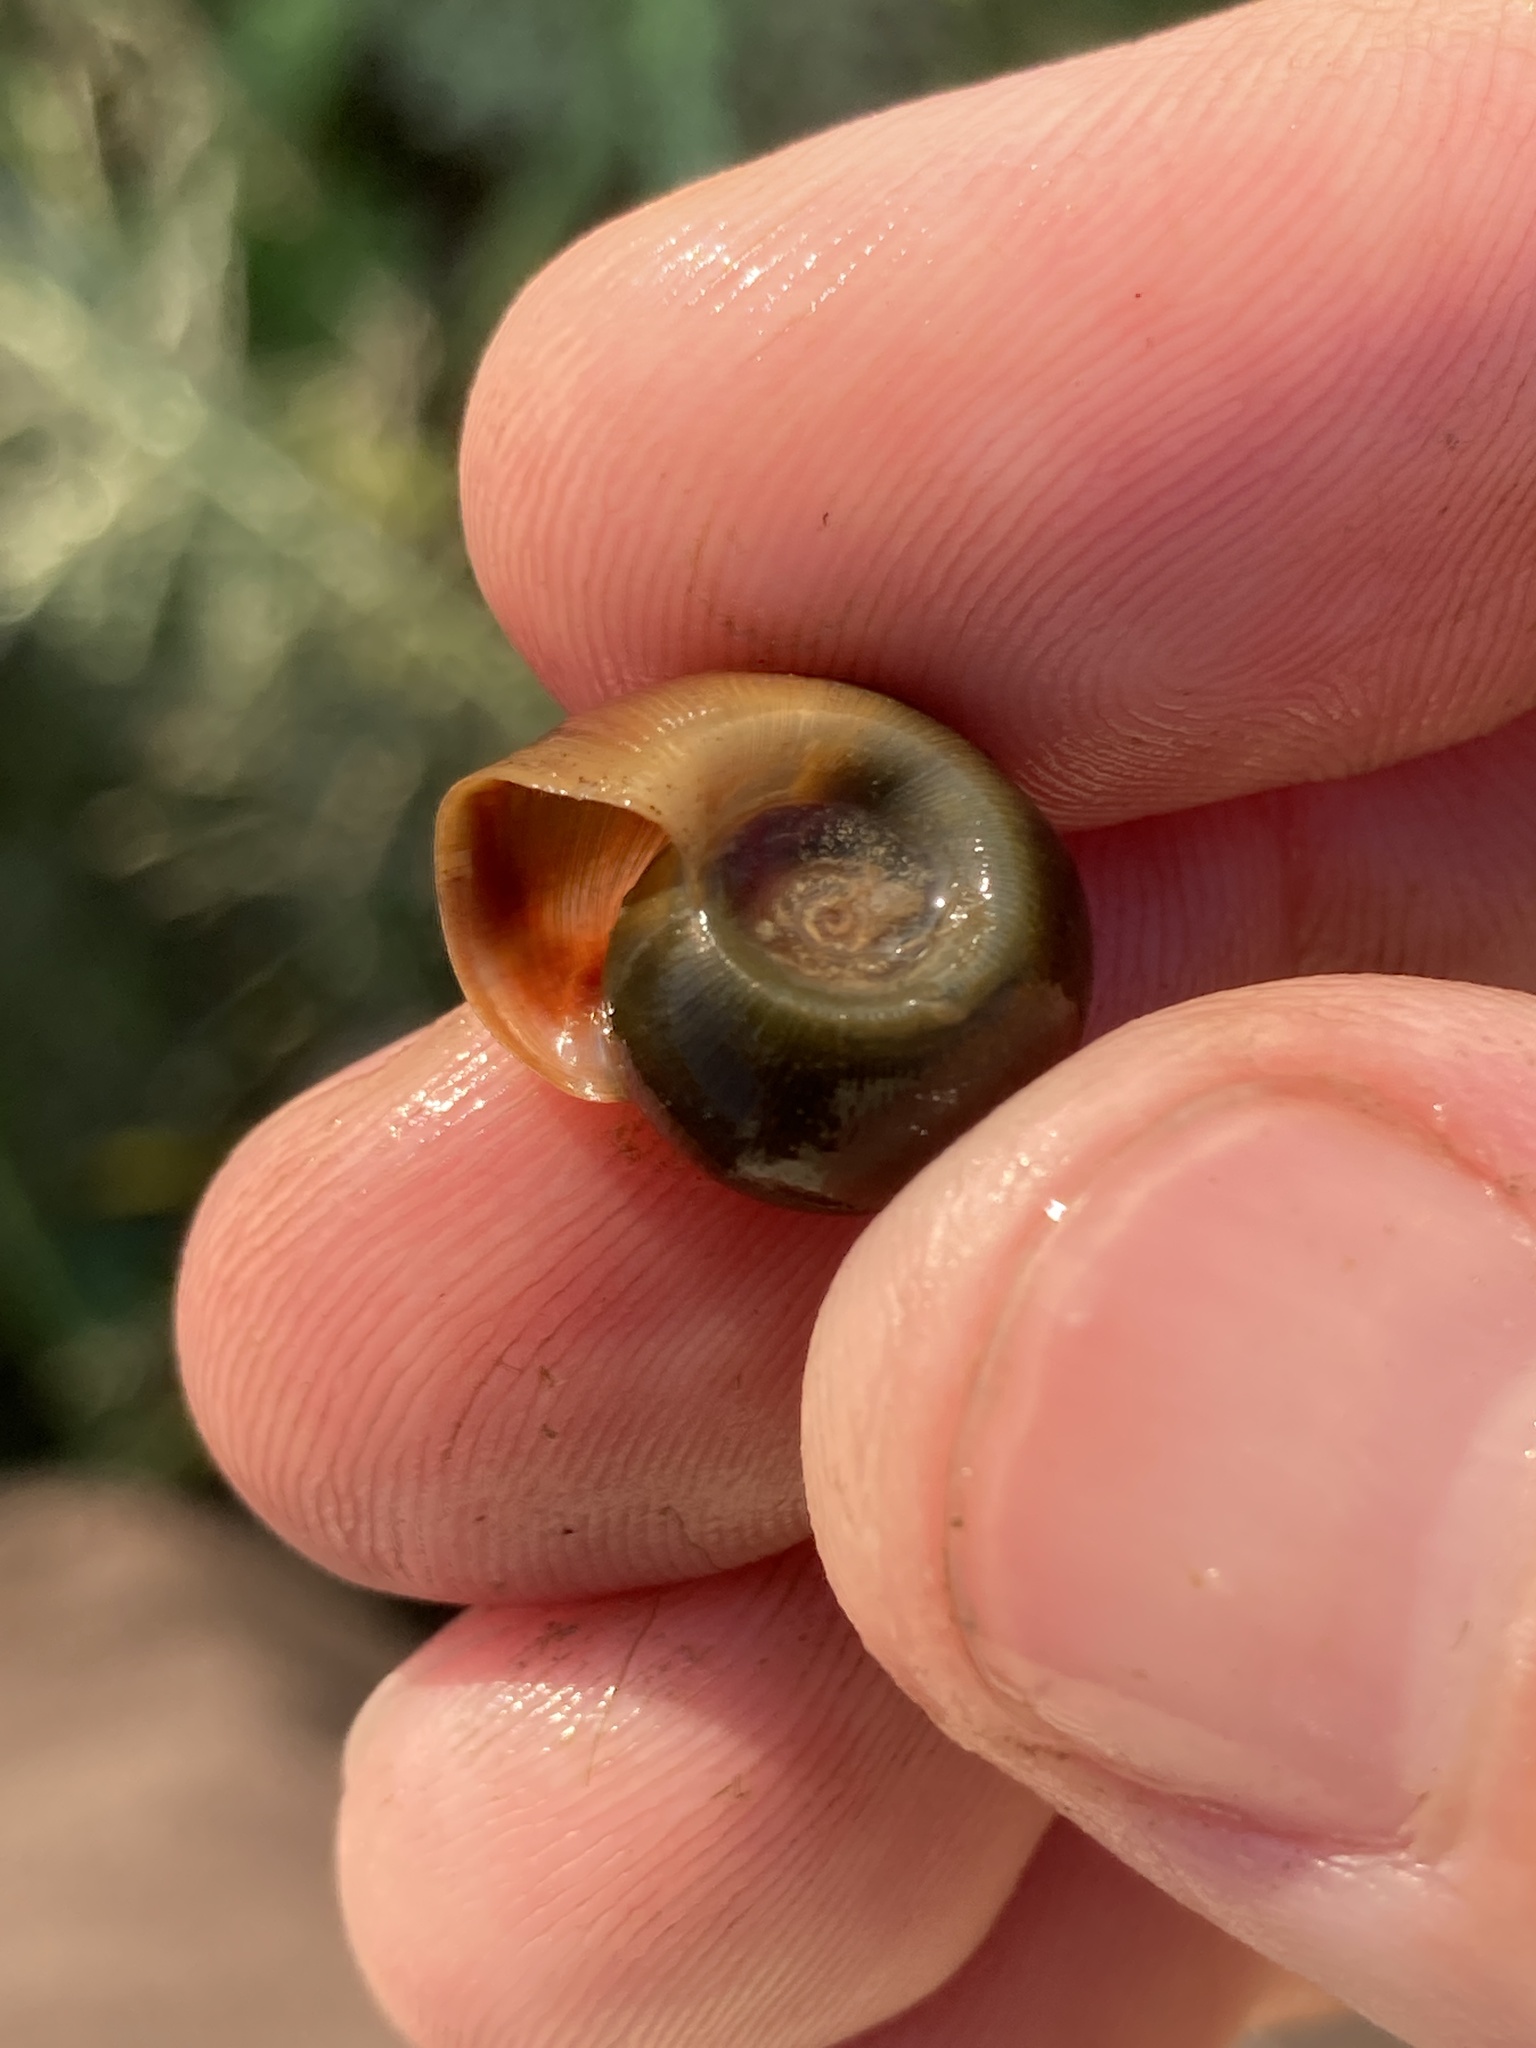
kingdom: Animalia
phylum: Mollusca
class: Gastropoda
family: Planorbidae
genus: Planorbella
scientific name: Planorbella trivolvis
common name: Marsh rams-horn
